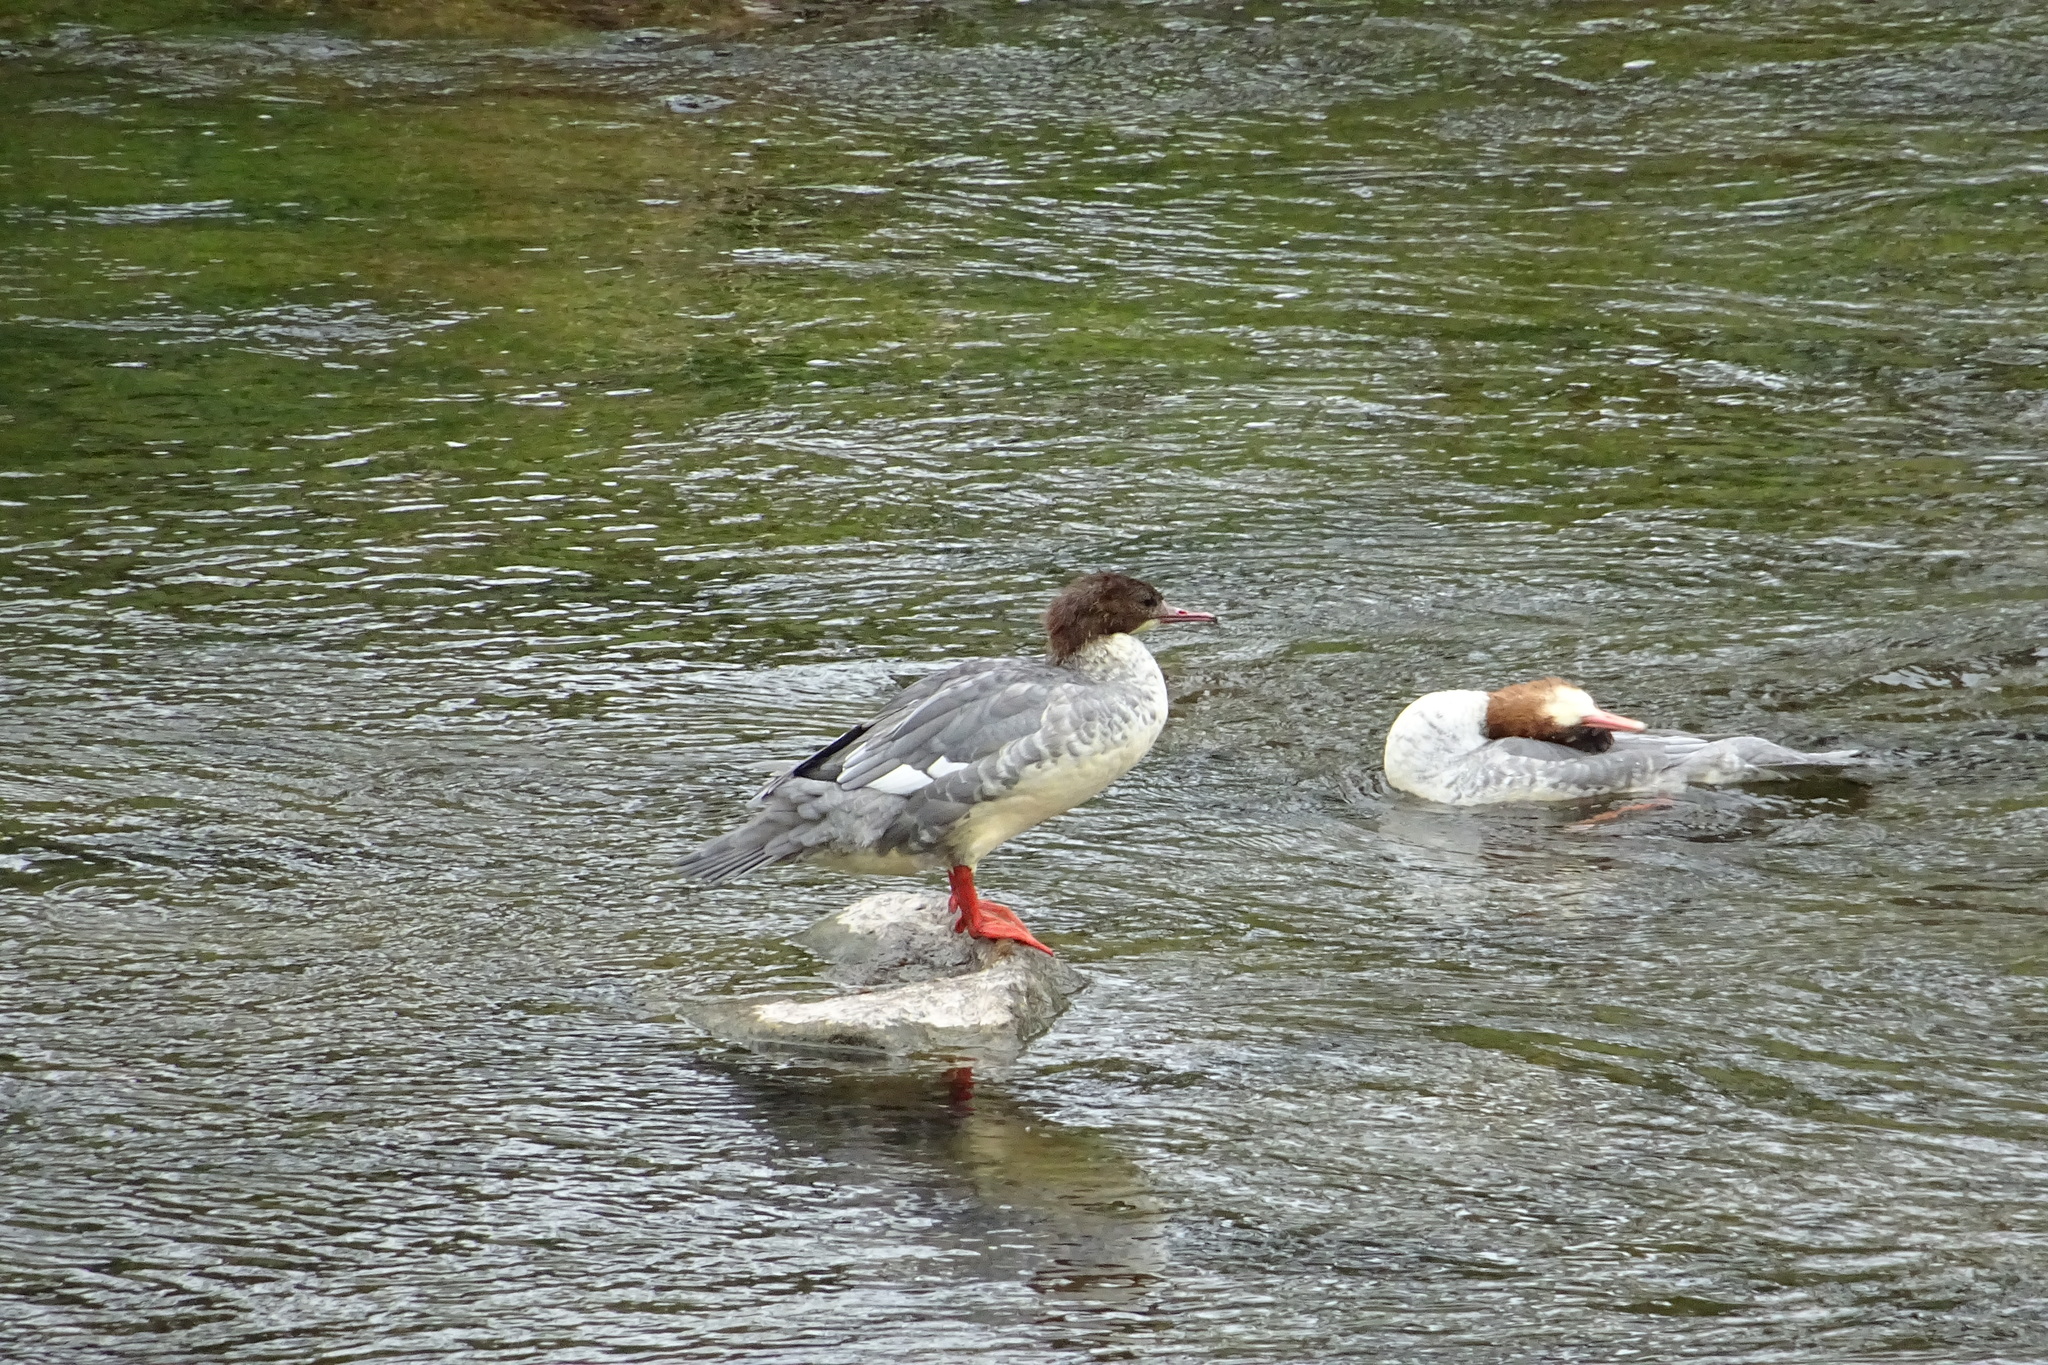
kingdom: Animalia
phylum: Chordata
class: Aves
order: Anseriformes
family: Anatidae
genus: Mergus
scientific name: Mergus merganser
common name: Common merganser
